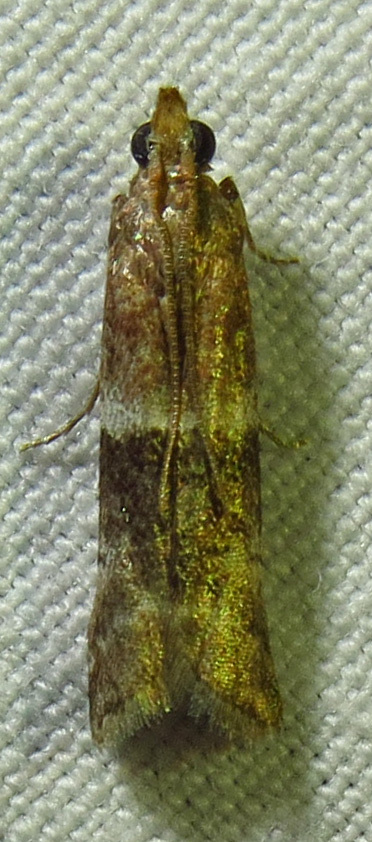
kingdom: Animalia
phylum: Arthropoda
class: Insecta
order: Lepidoptera
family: Pyralidae
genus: Moodna
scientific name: Moodna ostrinella
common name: Darker moodna moth
